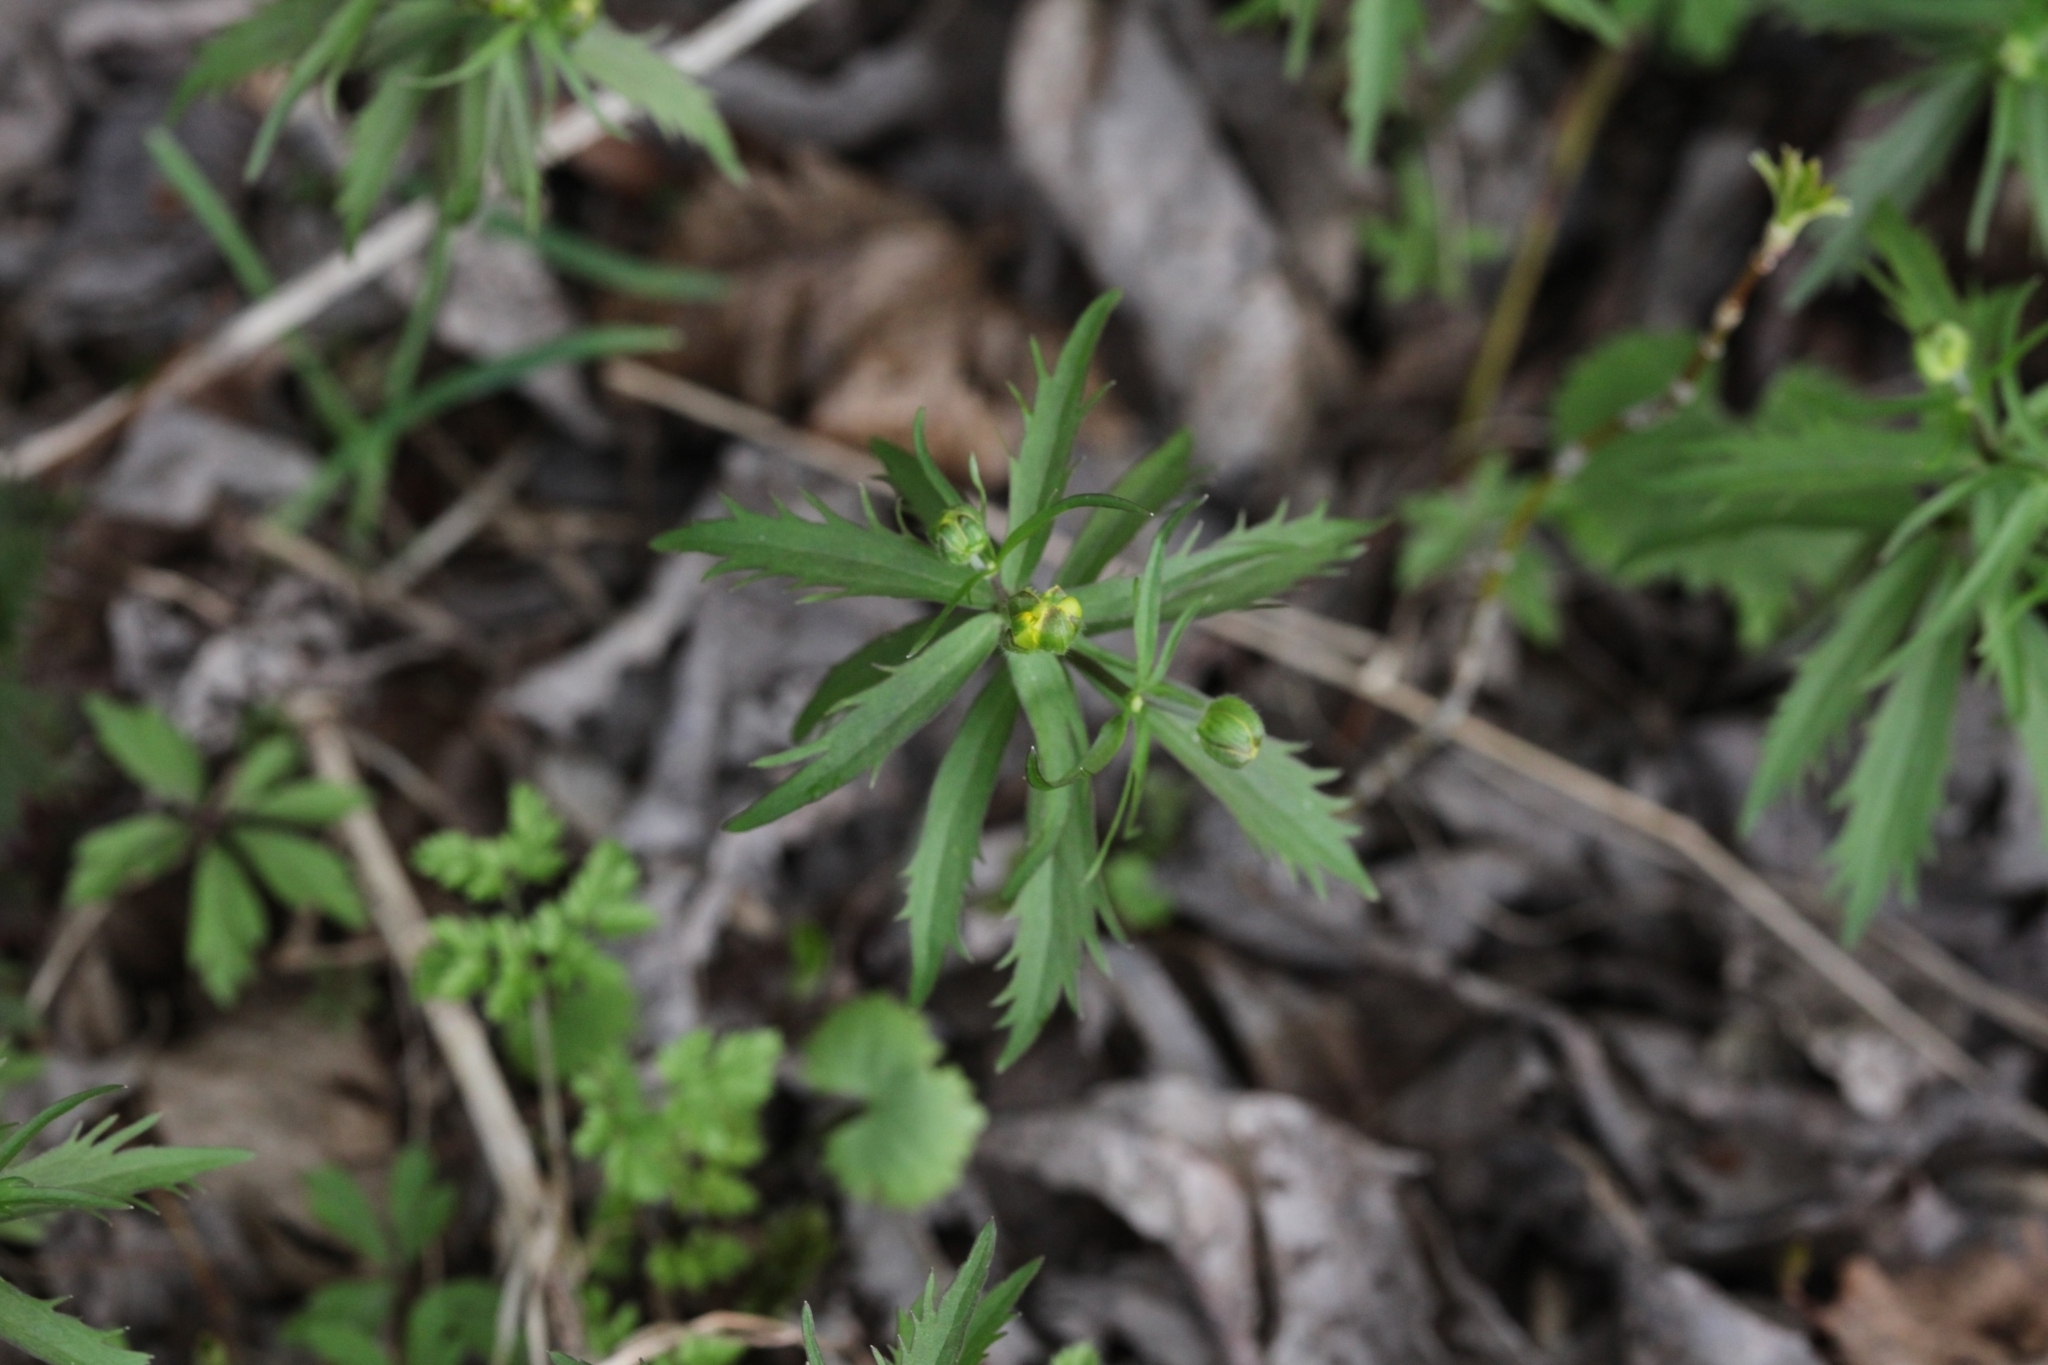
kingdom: Plantae
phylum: Tracheophyta
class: Magnoliopsida
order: Ranunculales
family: Ranunculaceae
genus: Ranunculus
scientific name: Ranunculus cassubicus
